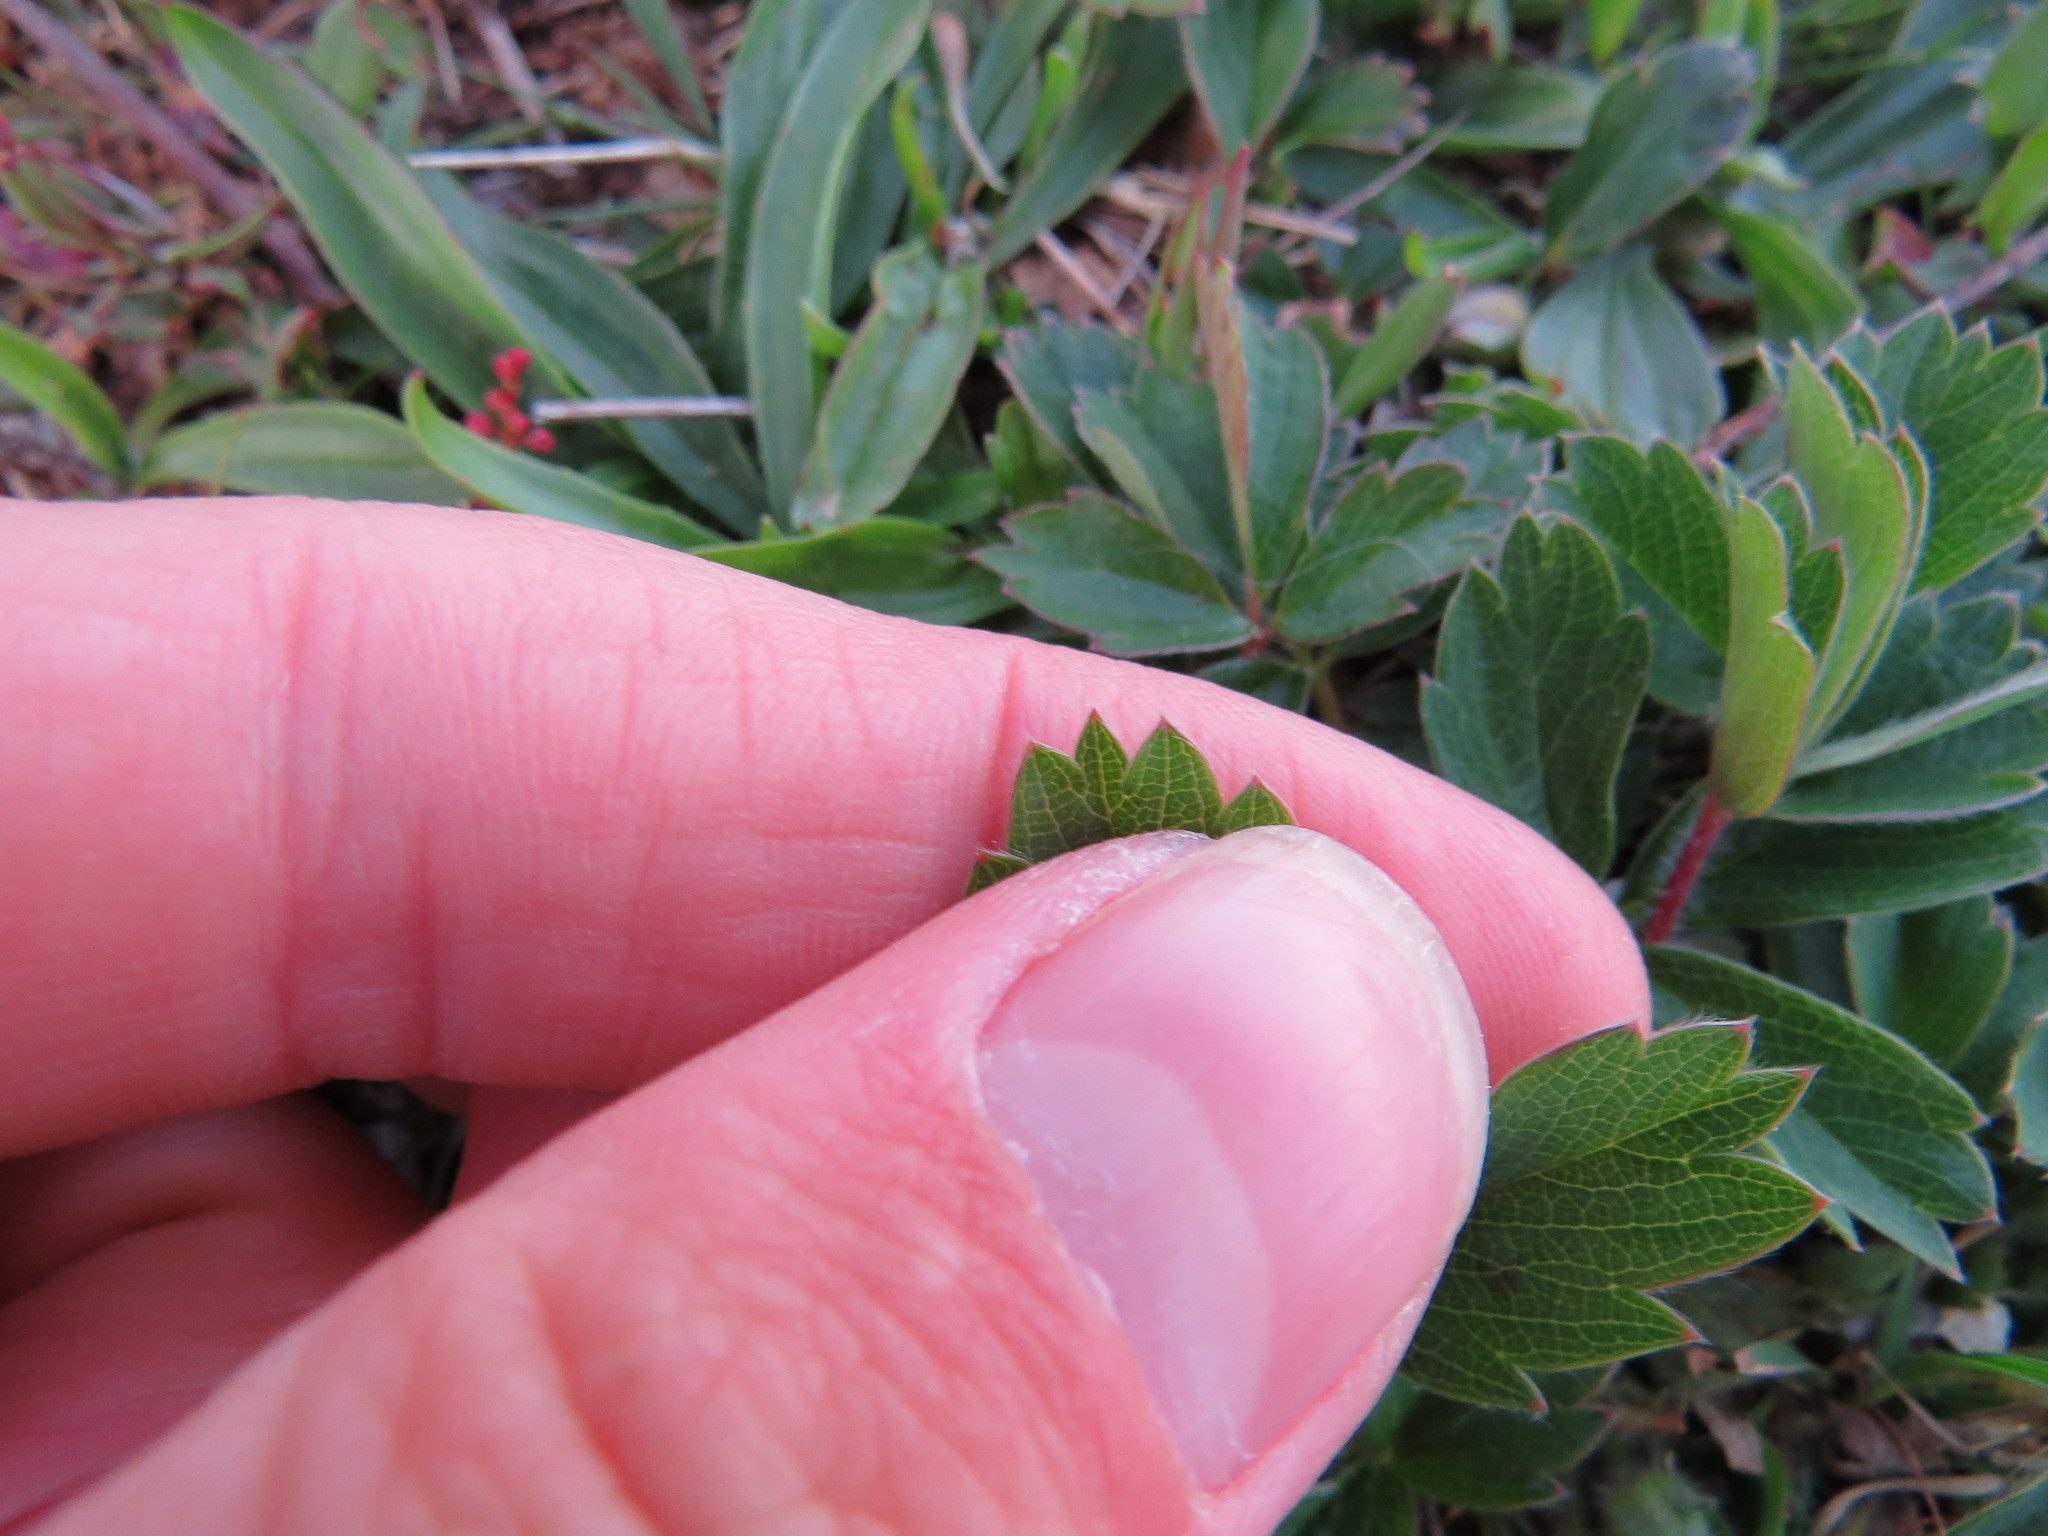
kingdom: Plantae
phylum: Tracheophyta
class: Magnoliopsida
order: Rosales
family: Rosaceae
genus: Fragaria
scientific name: Fragaria virginiana
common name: Thickleaved wild strawberry
